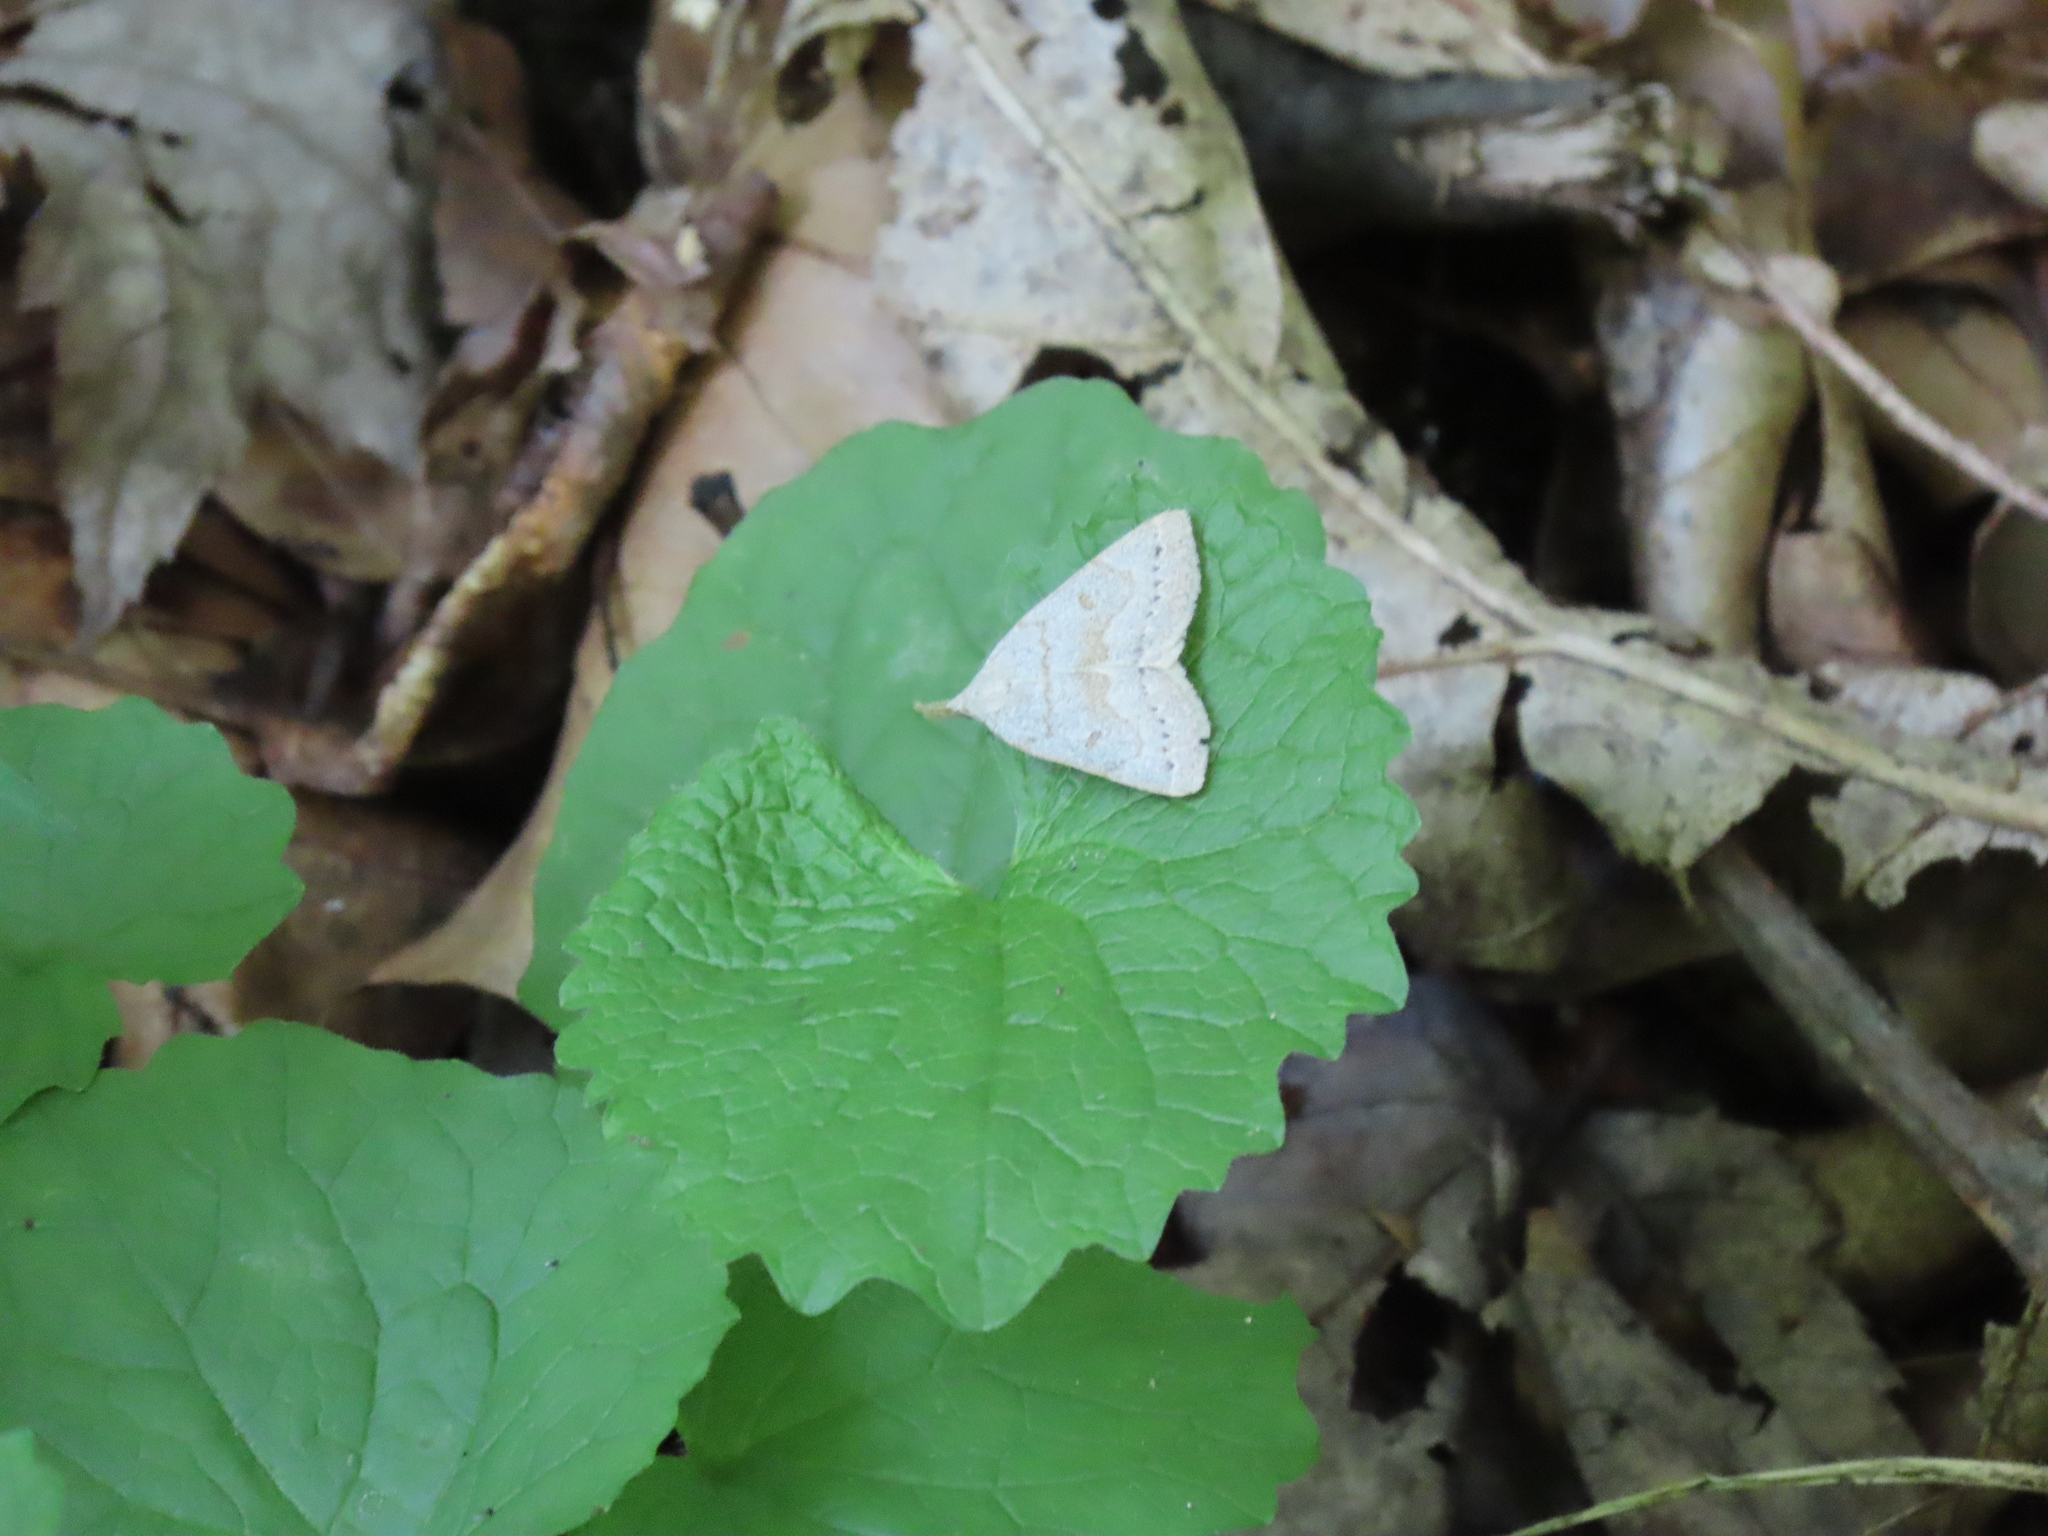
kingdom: Animalia
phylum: Arthropoda
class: Insecta
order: Lepidoptera
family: Erebidae
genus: Macrochilo
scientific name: Macrochilo morbidalis
